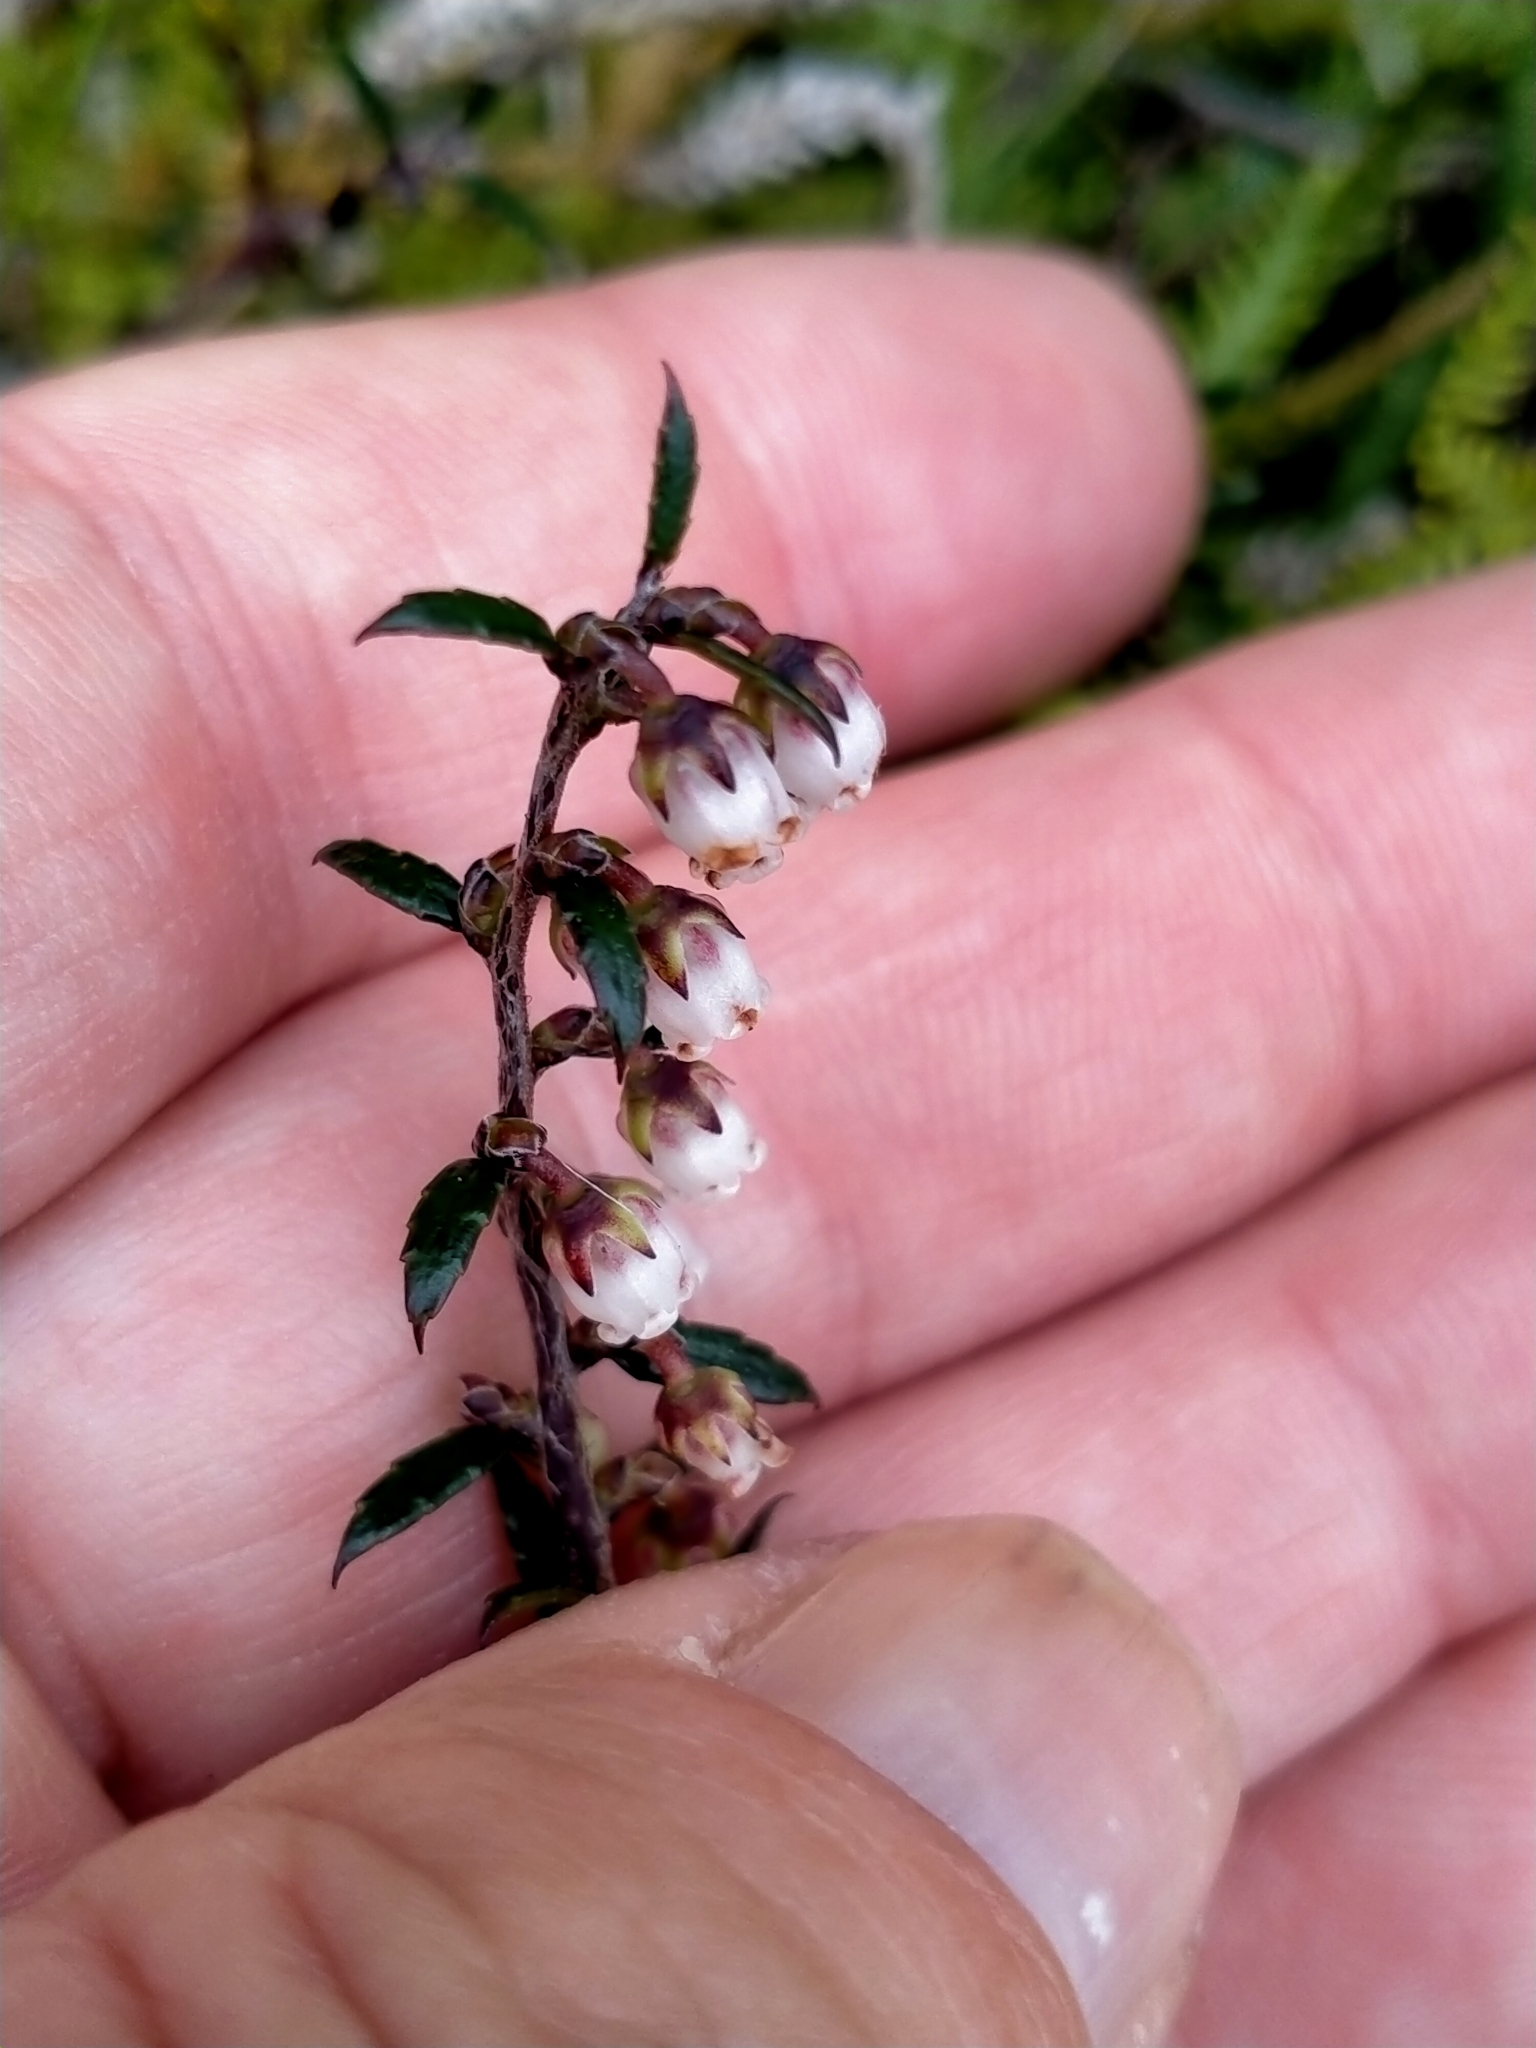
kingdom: Plantae
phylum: Tracheophyta
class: Magnoliopsida
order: Ericales
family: Ericaceae
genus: Gaultheria
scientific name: Gaultheria macrostigma
